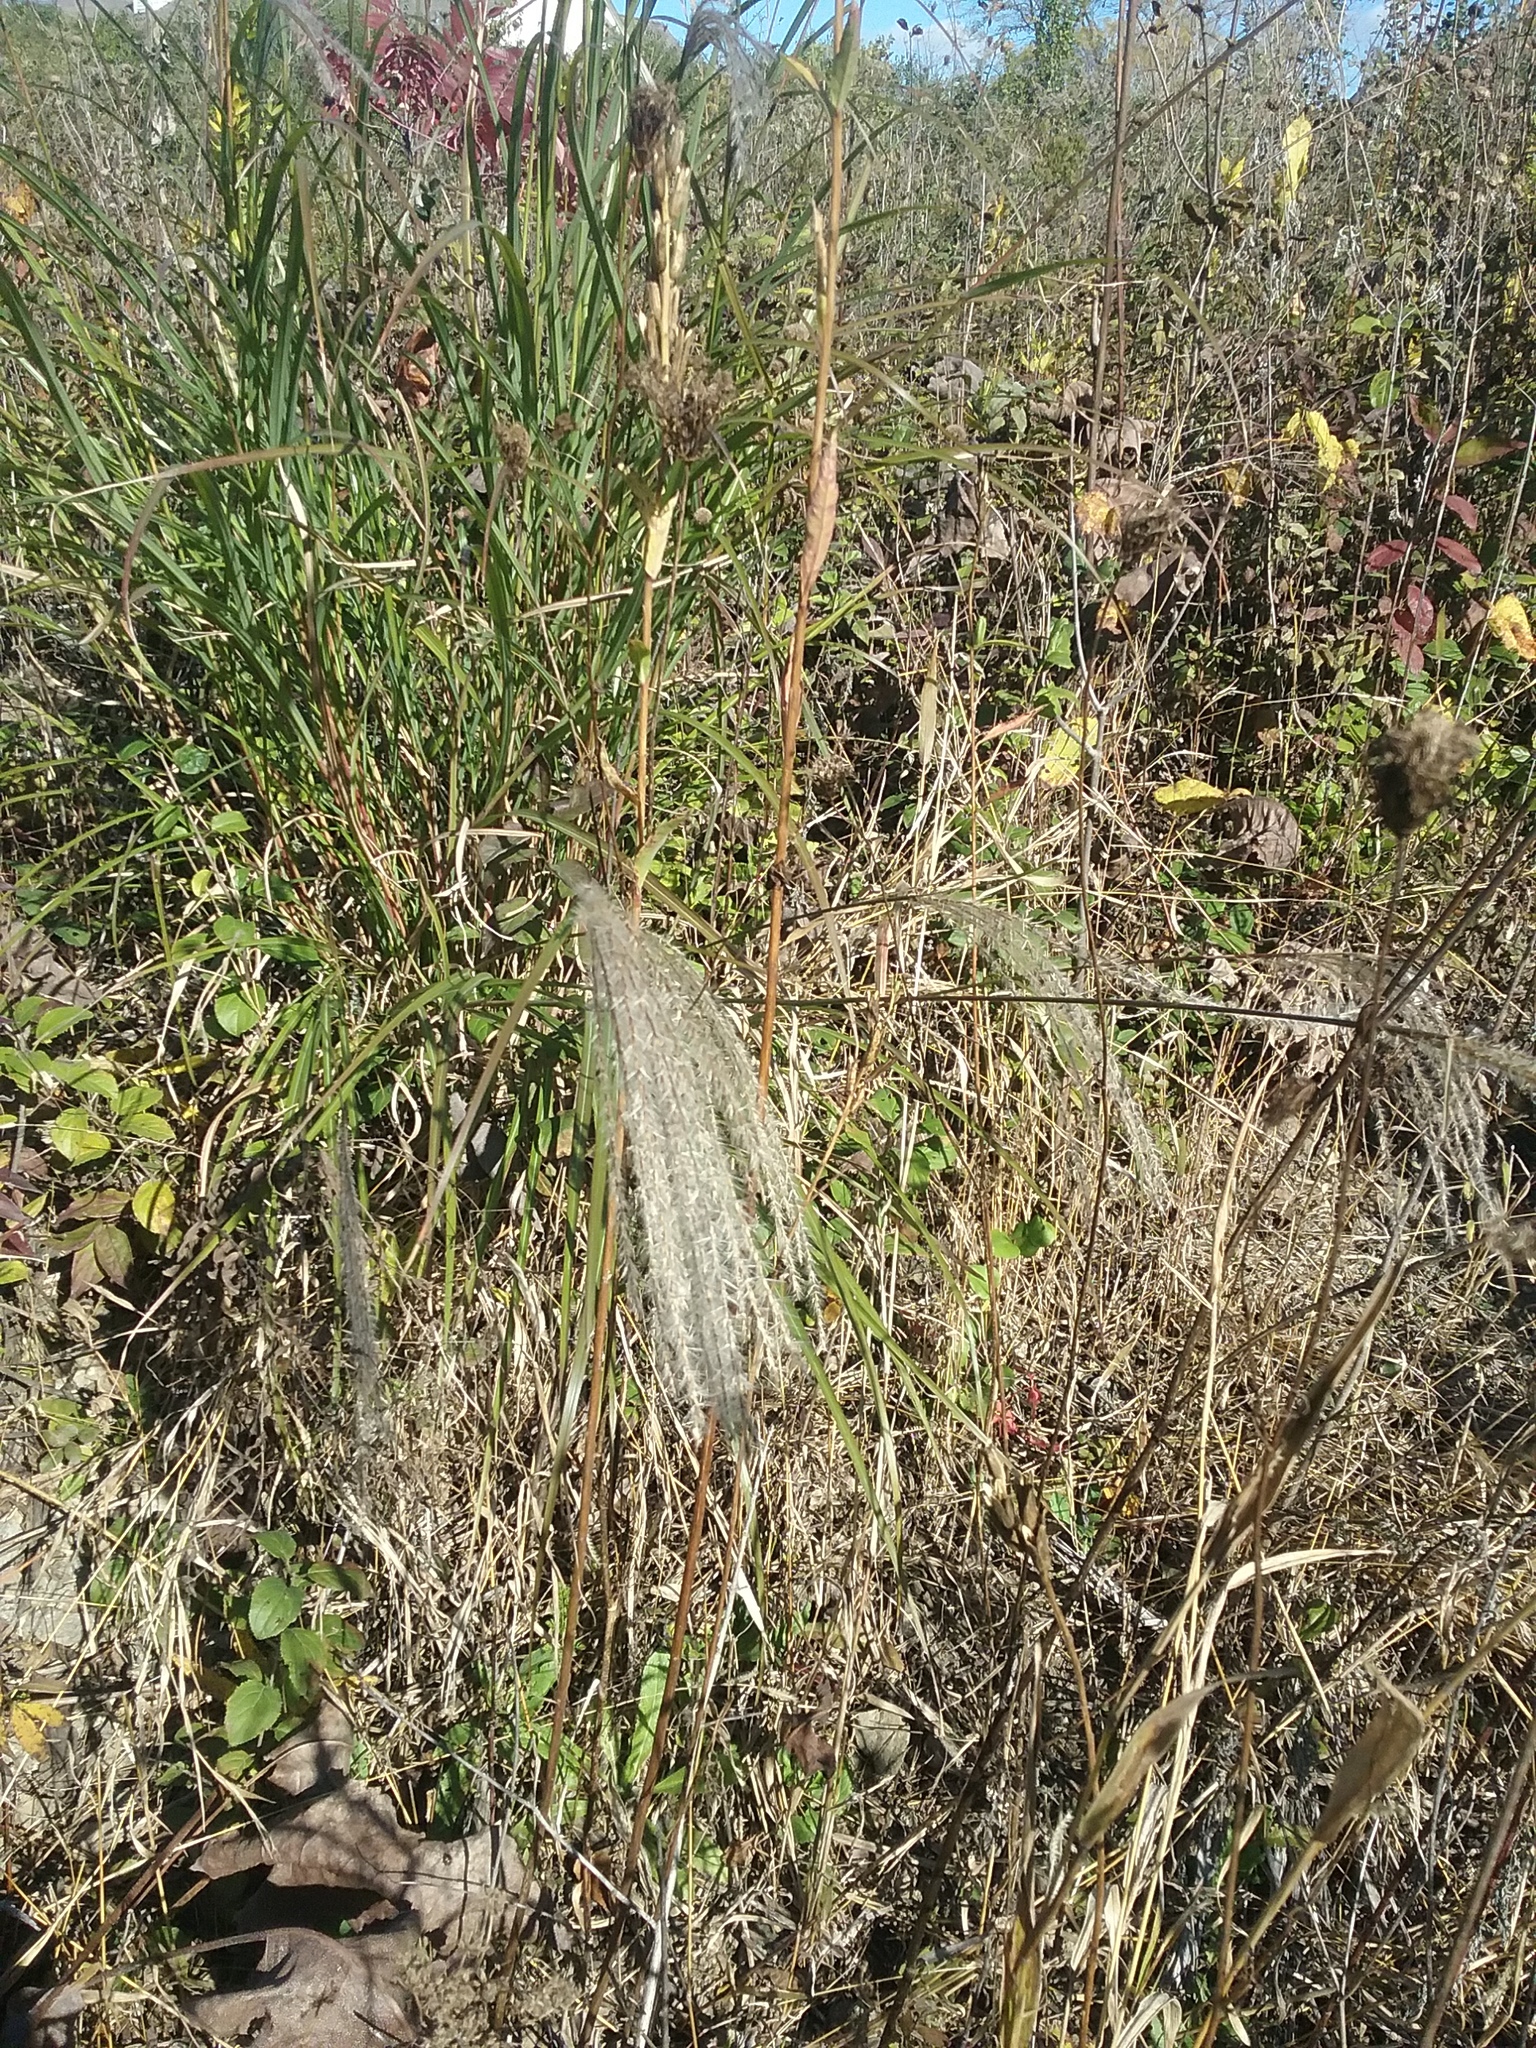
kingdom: Plantae
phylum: Tracheophyta
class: Liliopsida
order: Poales
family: Poaceae
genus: Miscanthus
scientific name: Miscanthus sinensis
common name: Chinese silvergrass
